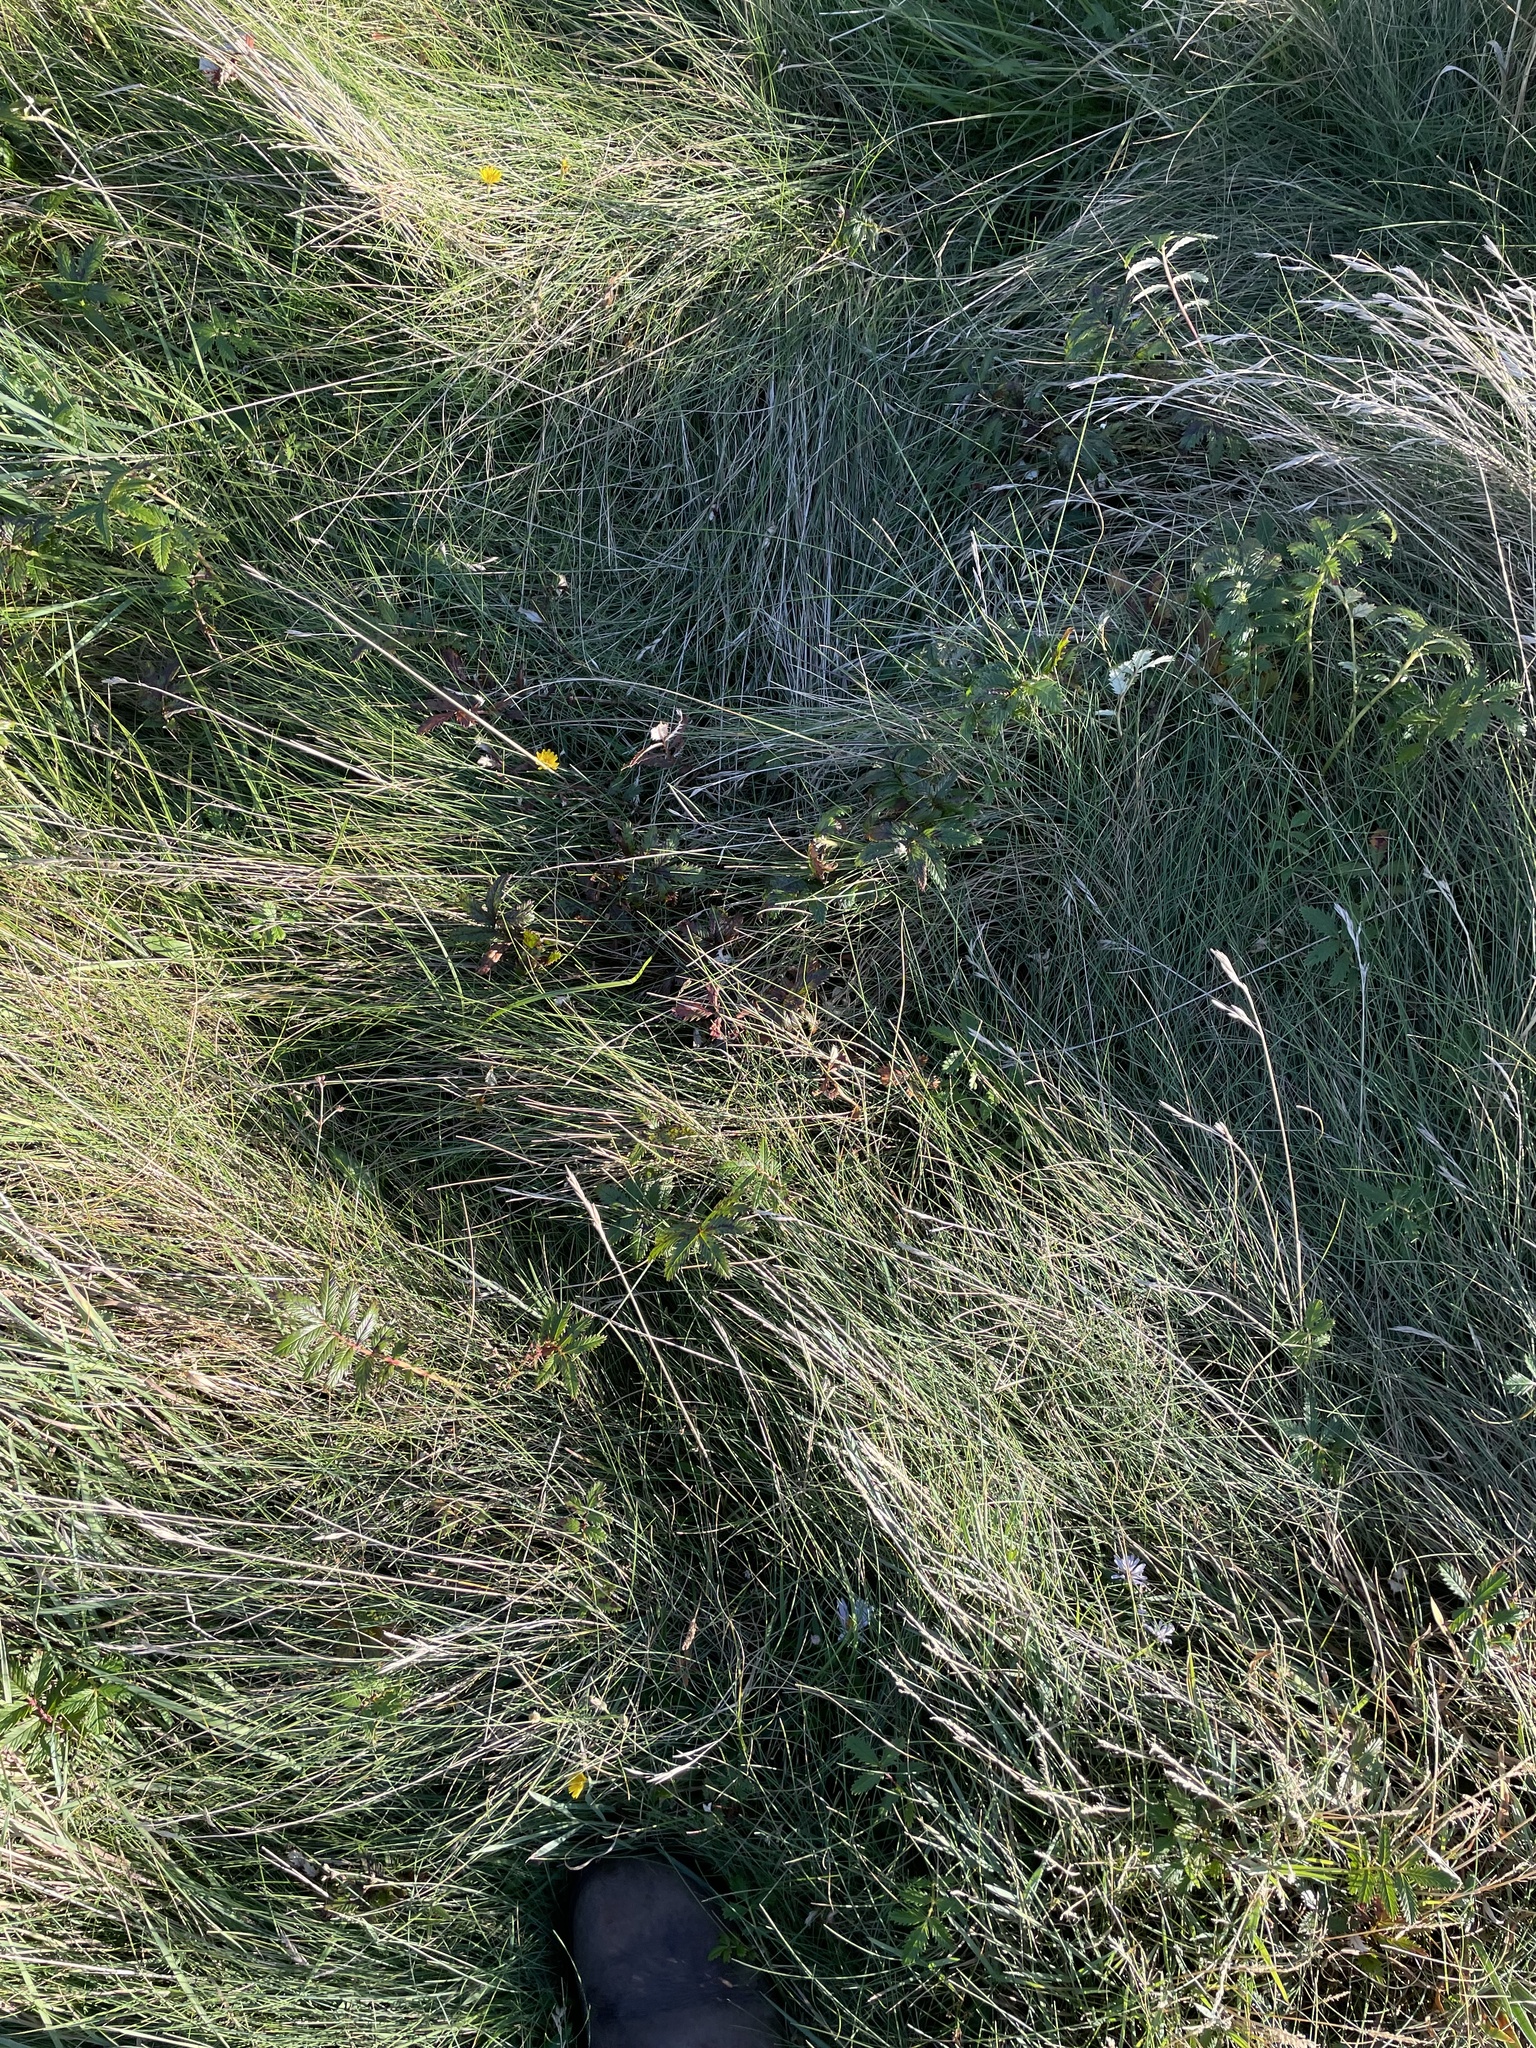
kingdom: Plantae
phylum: Tracheophyta
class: Magnoliopsida
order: Rosales
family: Rosaceae
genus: Argentina
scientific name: Argentina anserina
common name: Common silverweed
